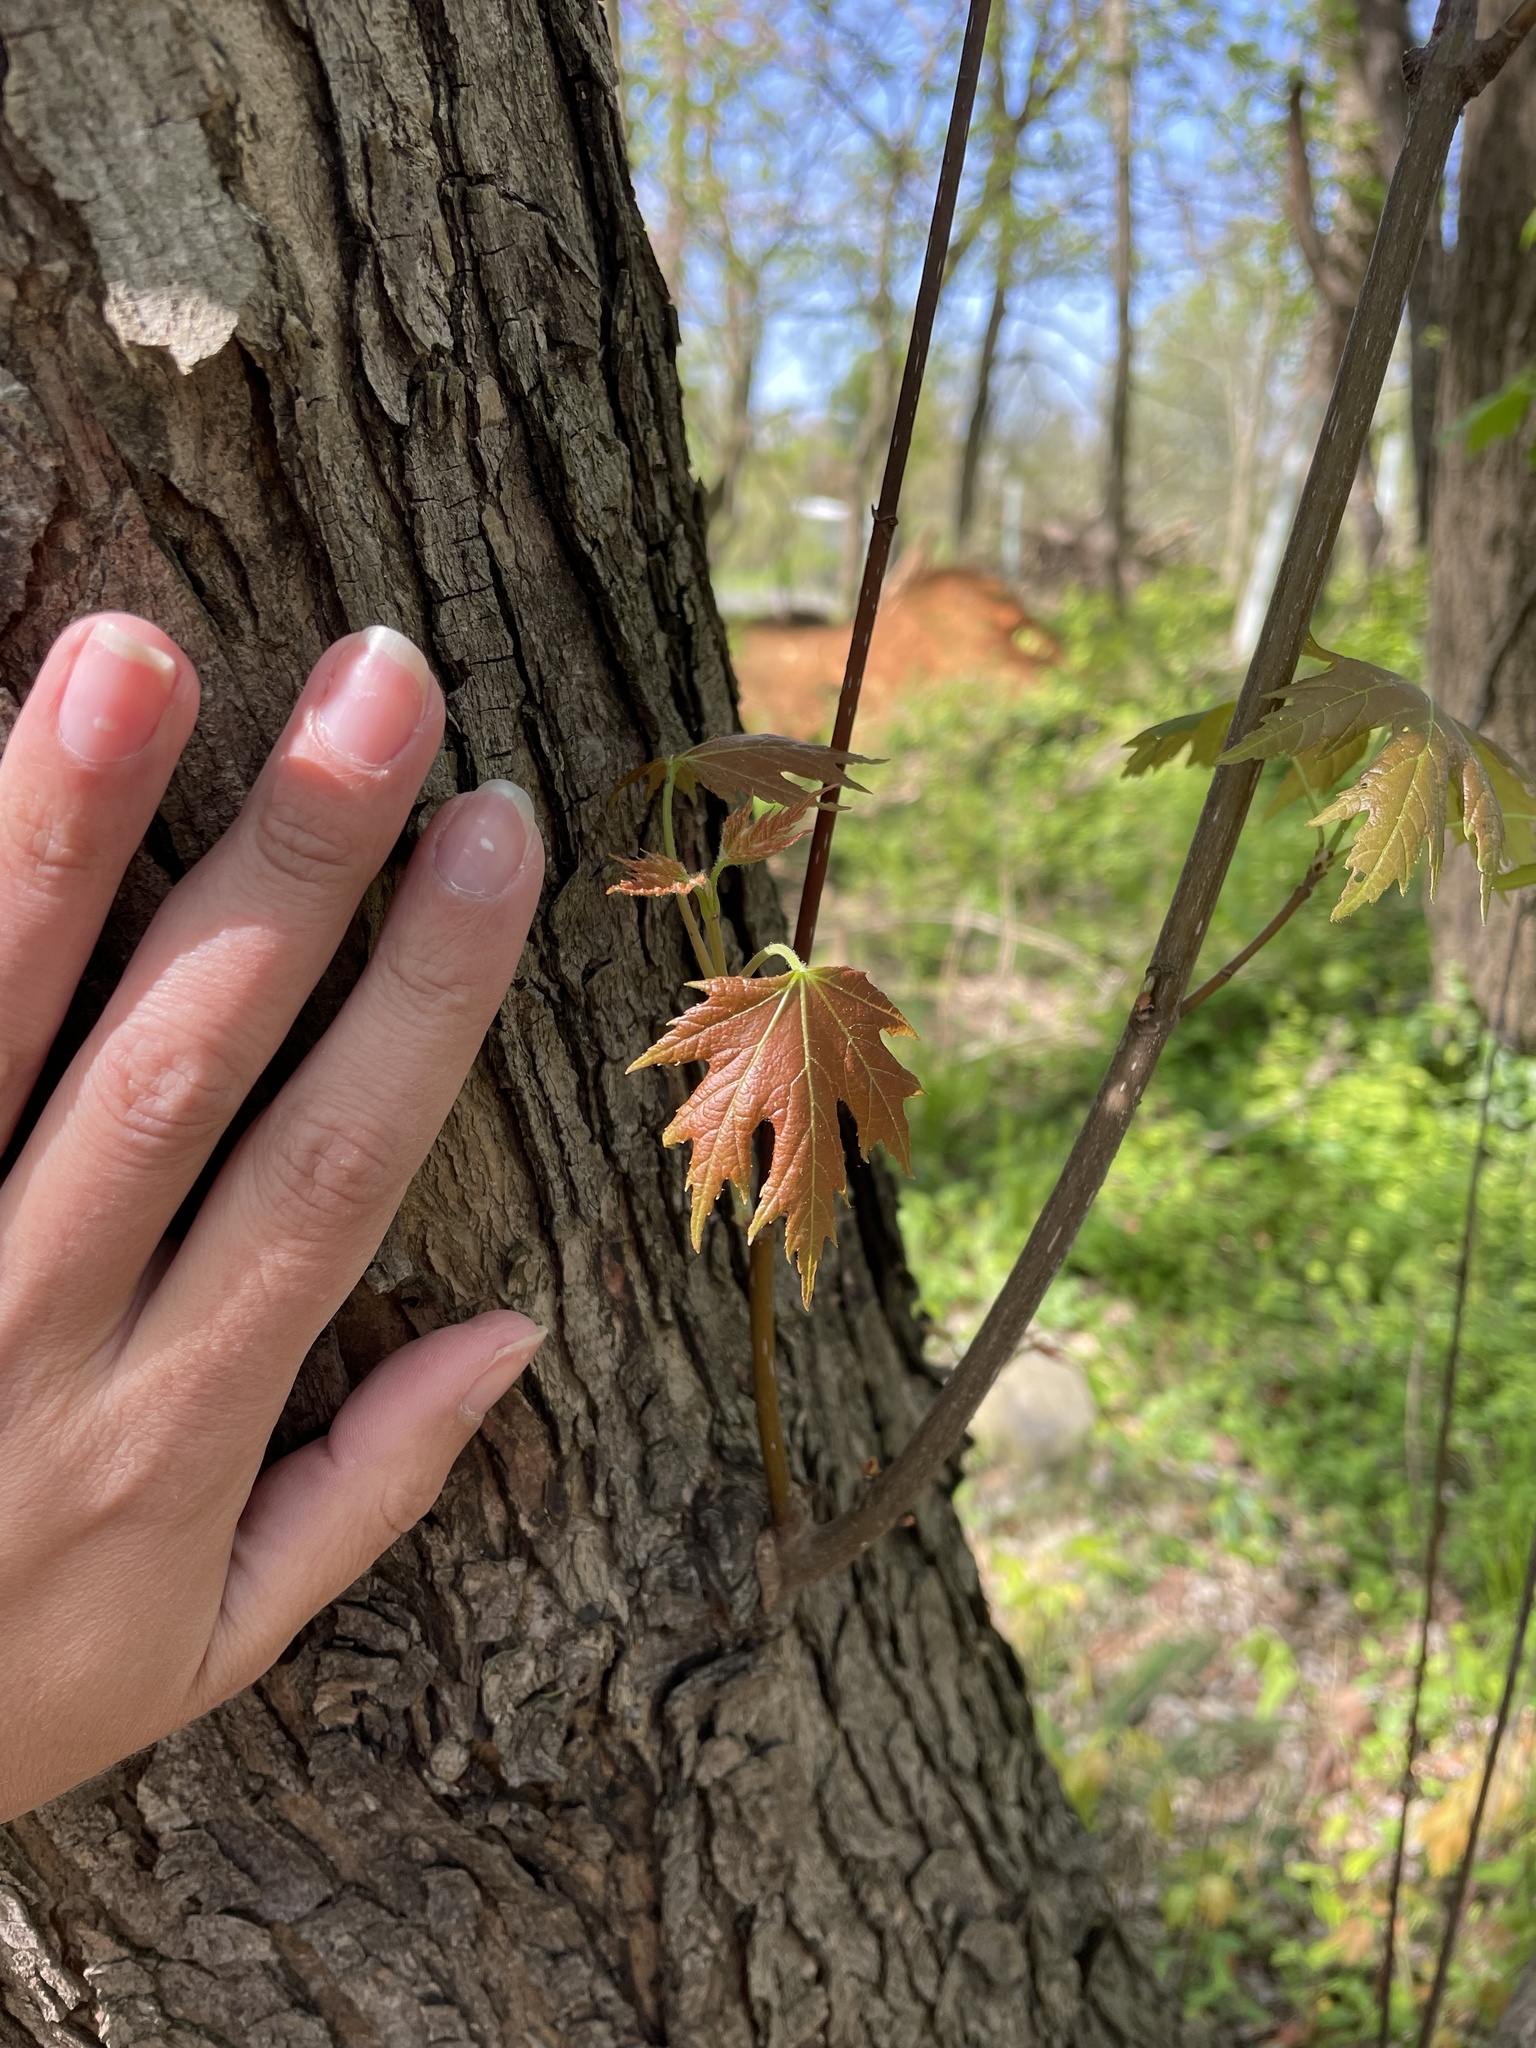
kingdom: Plantae
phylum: Tracheophyta
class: Magnoliopsida
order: Sapindales
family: Sapindaceae
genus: Acer
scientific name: Acer saccharinum
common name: Silver maple
